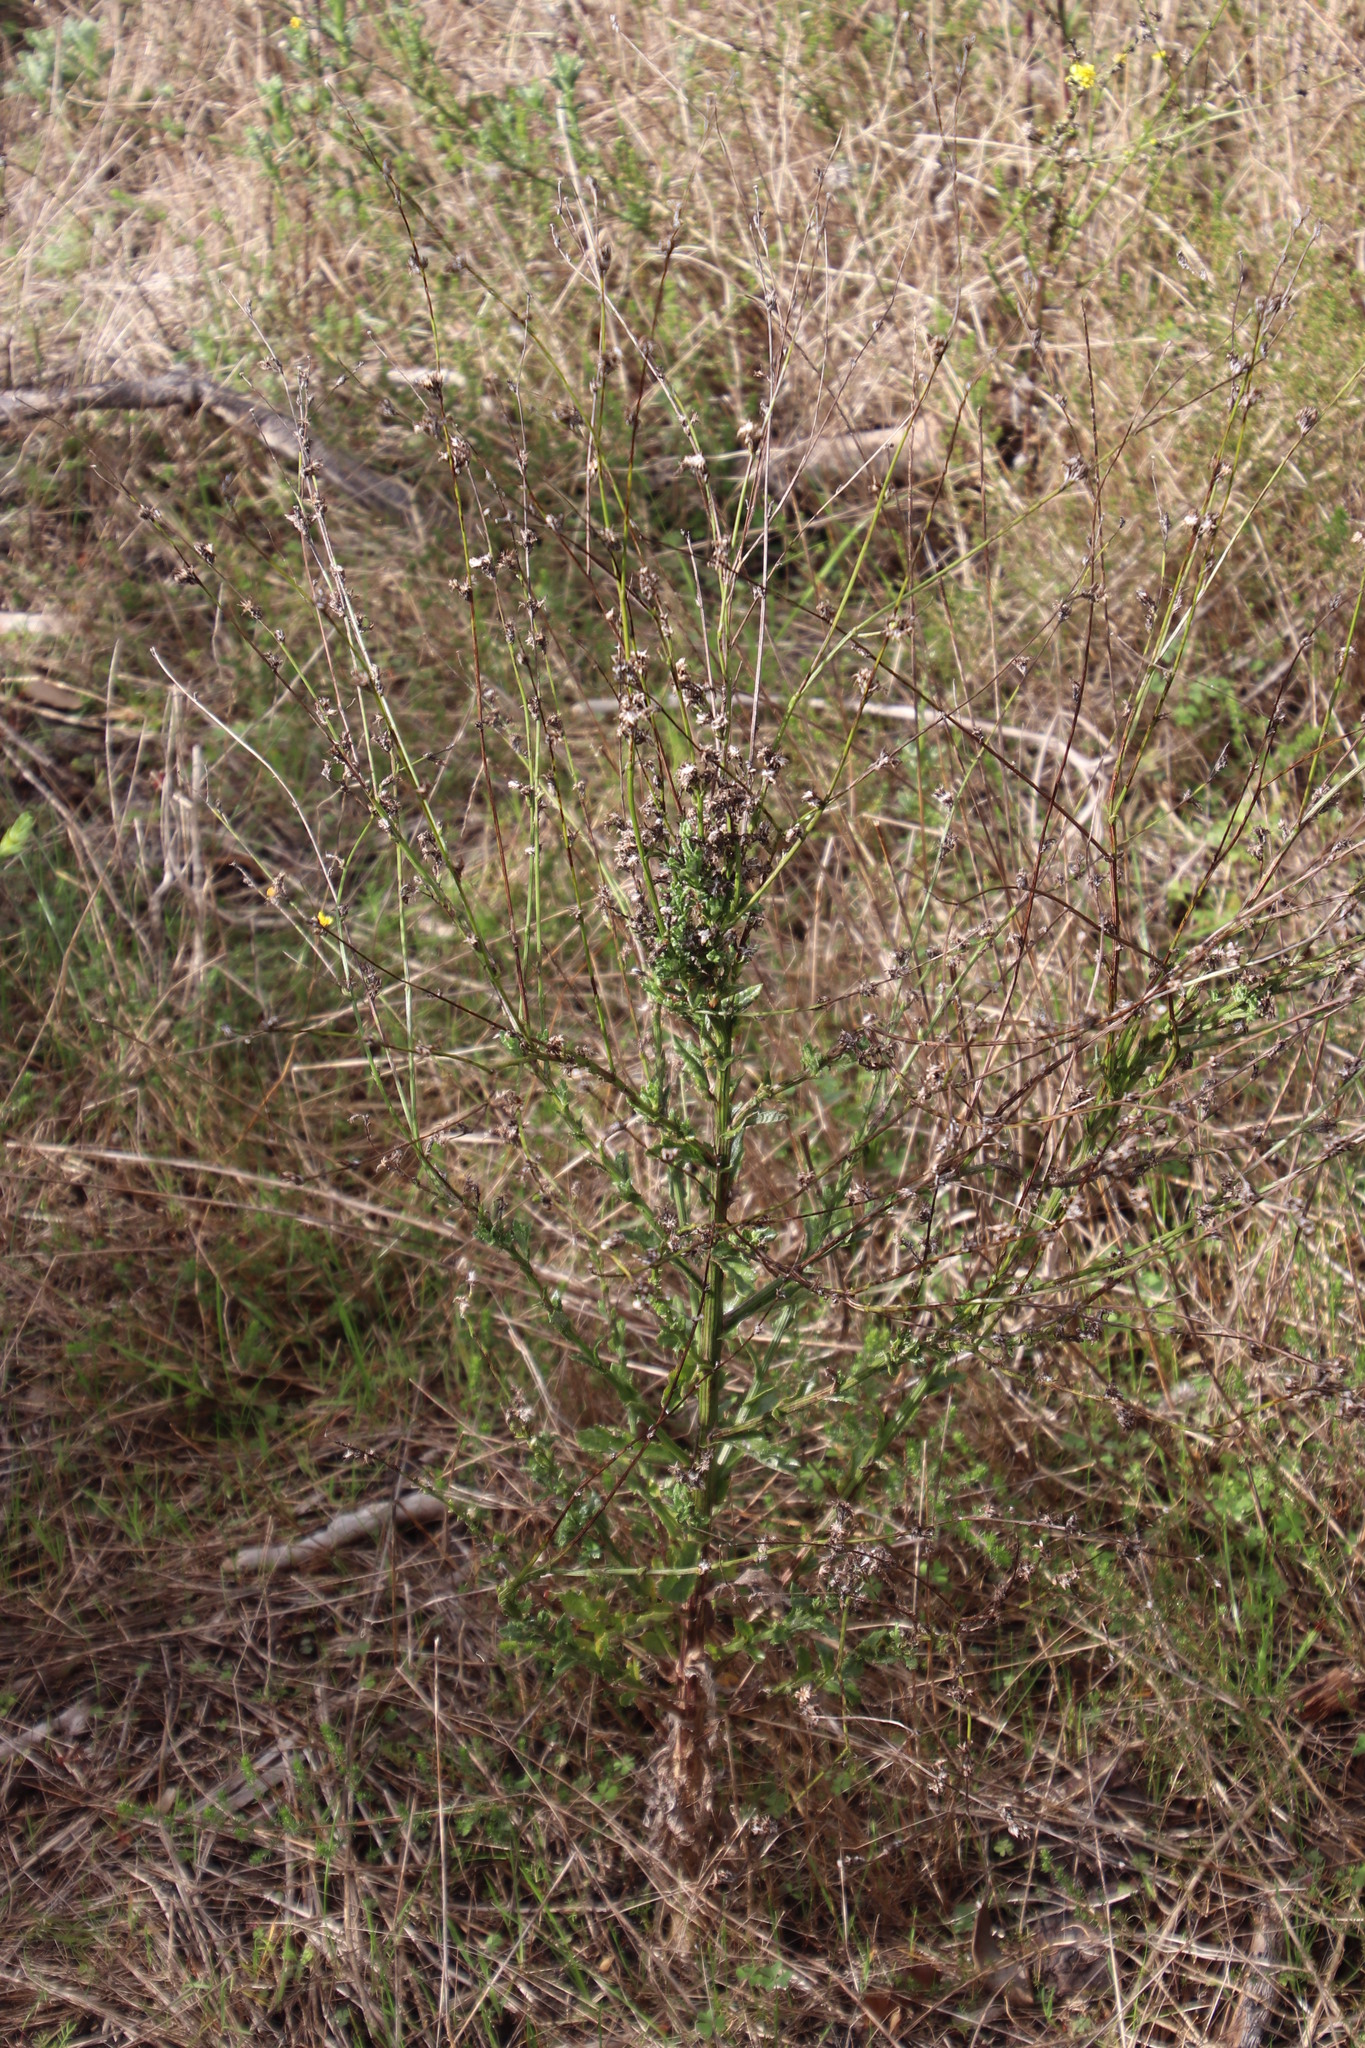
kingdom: Plantae
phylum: Tracheophyta
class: Magnoliopsida
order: Asterales
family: Asteraceae
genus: Senecio
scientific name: Senecio pubigerus
